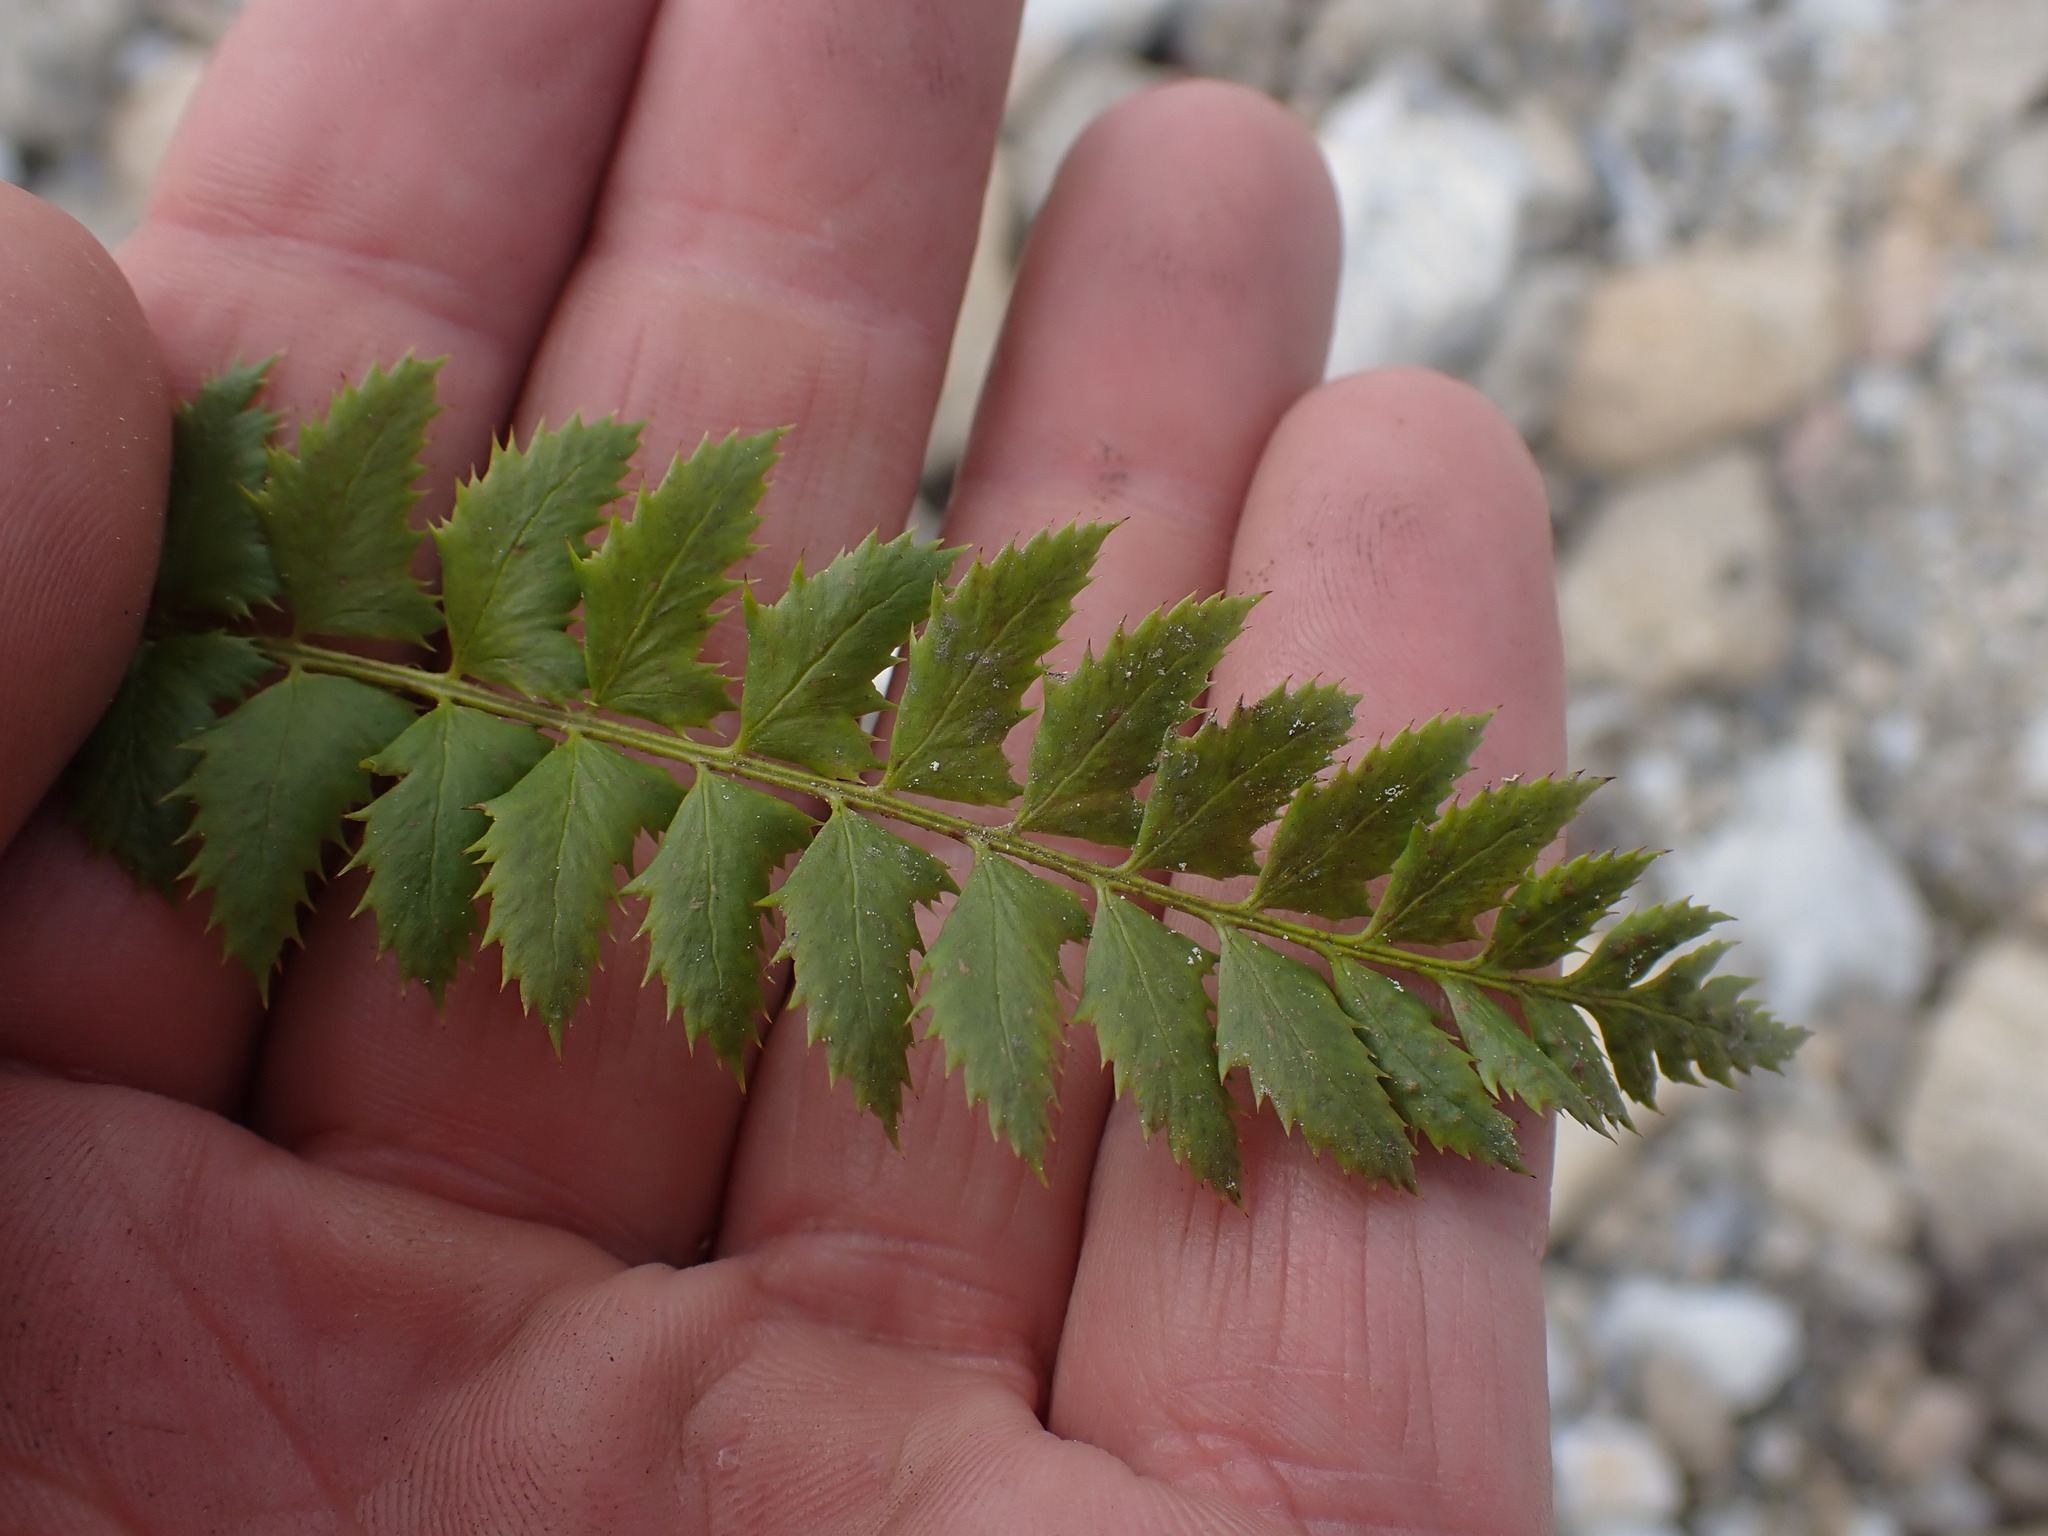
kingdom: Plantae
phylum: Tracheophyta
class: Polypodiopsida
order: Polypodiales
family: Dryopteridaceae
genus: Polystichum
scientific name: Polystichum lonchitis
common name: Holly fern
